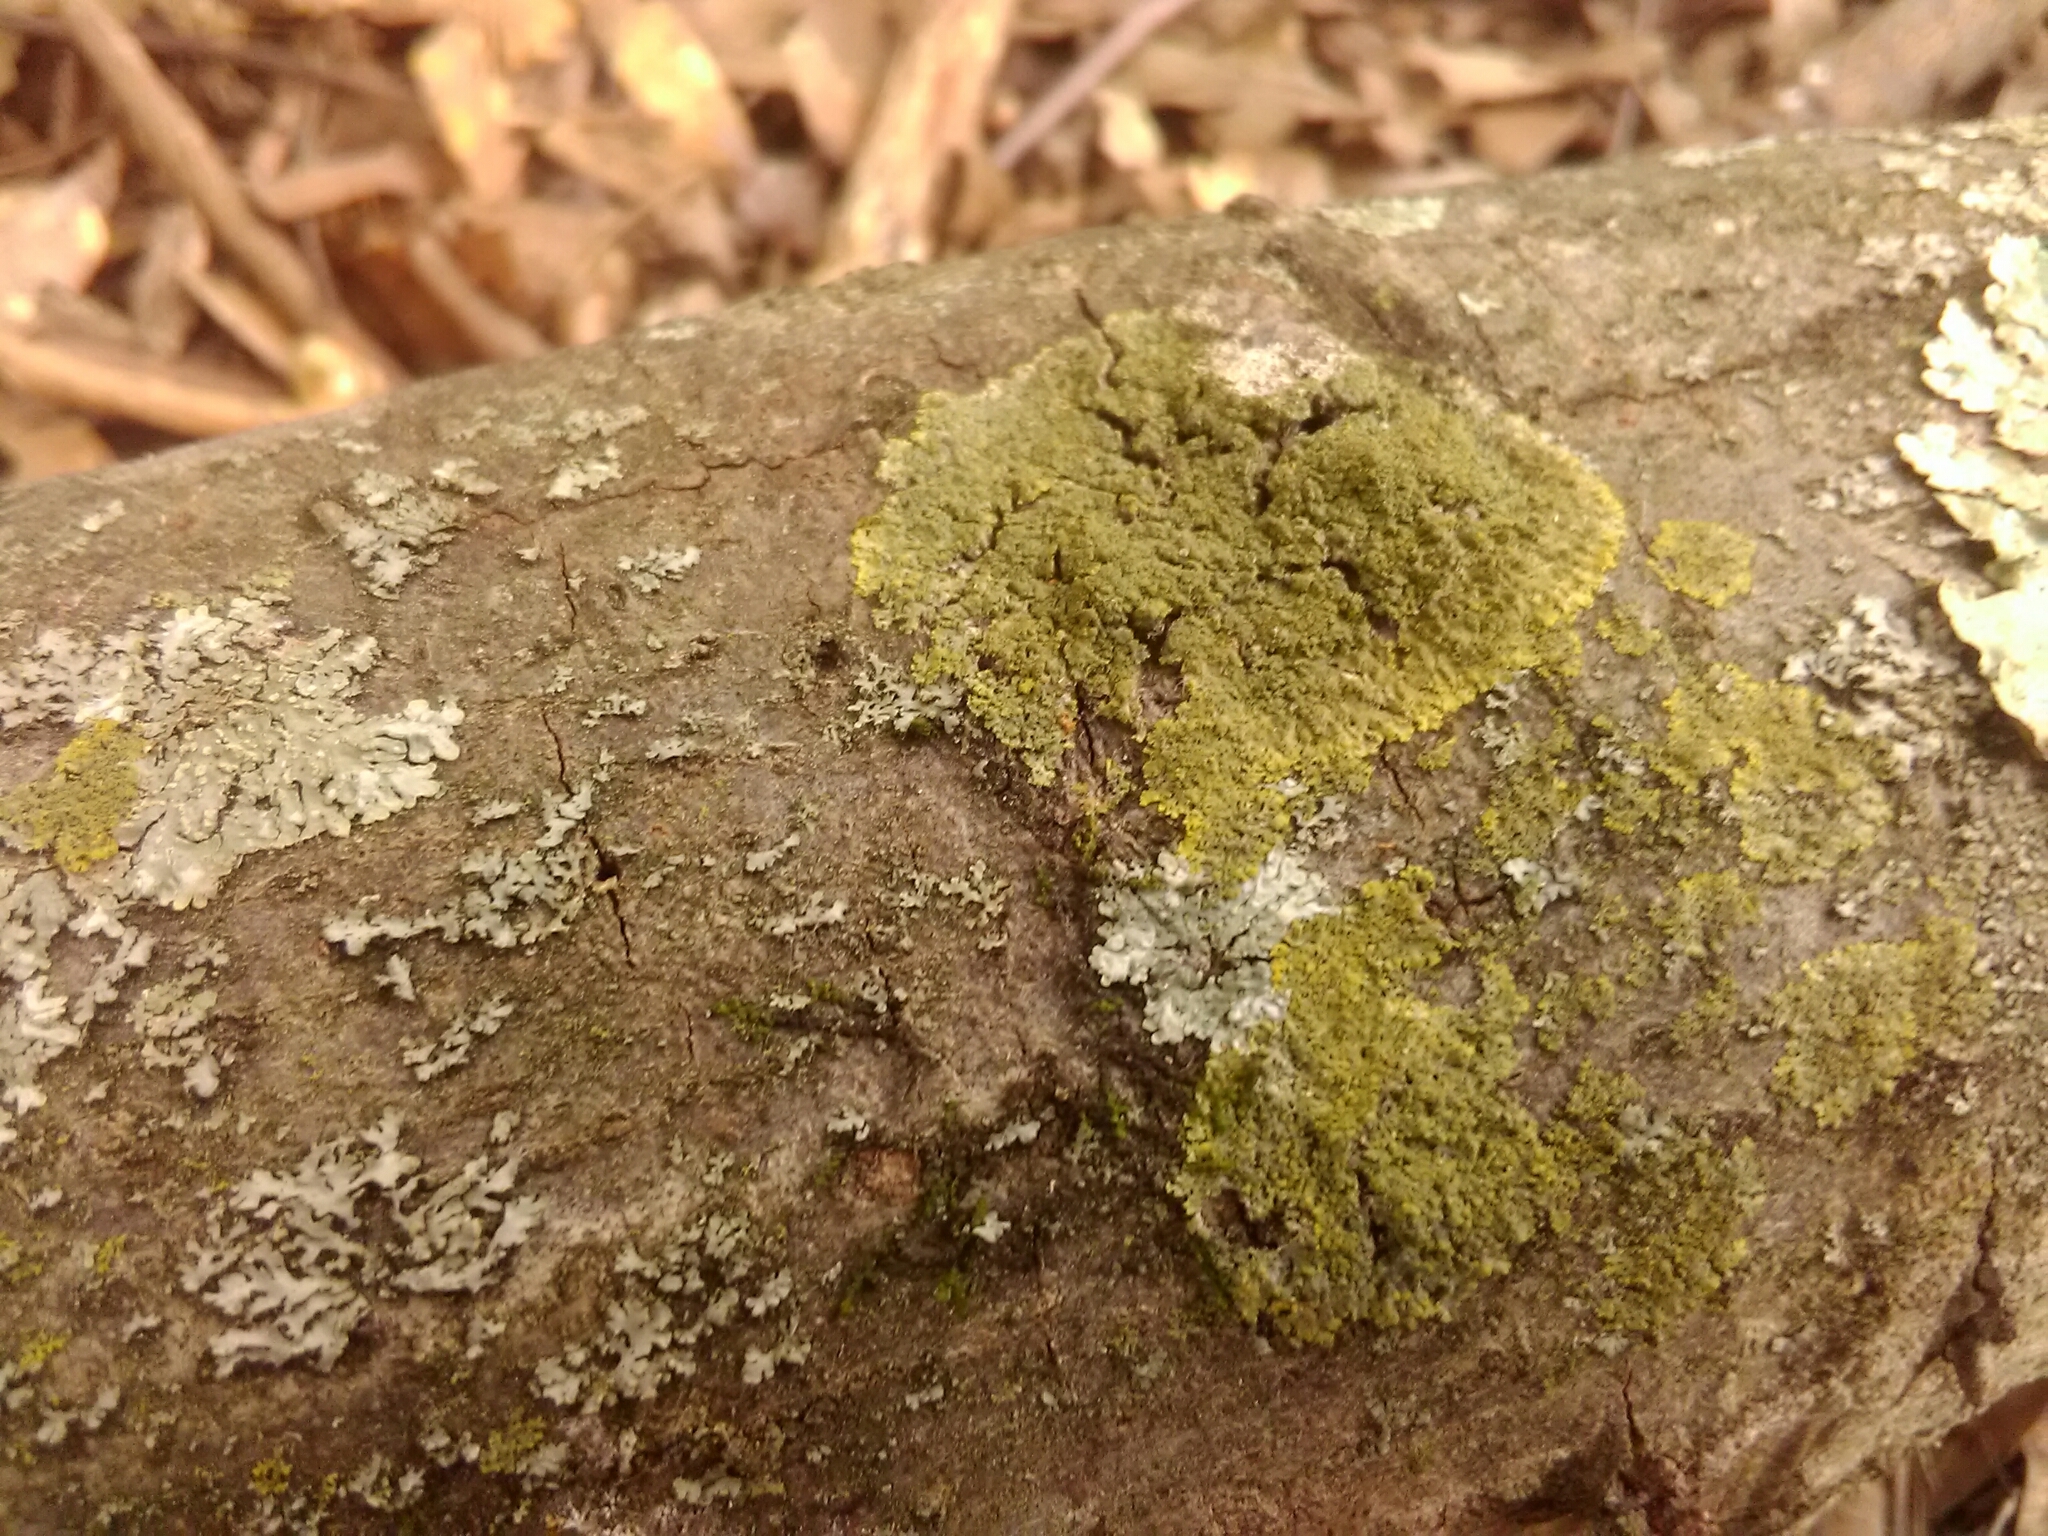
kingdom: Fungi
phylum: Ascomycota
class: Candelariomycetes
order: Candelariales
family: Candelariaceae
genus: Candelaria
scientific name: Candelaria concolor
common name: Candleflame lichen
